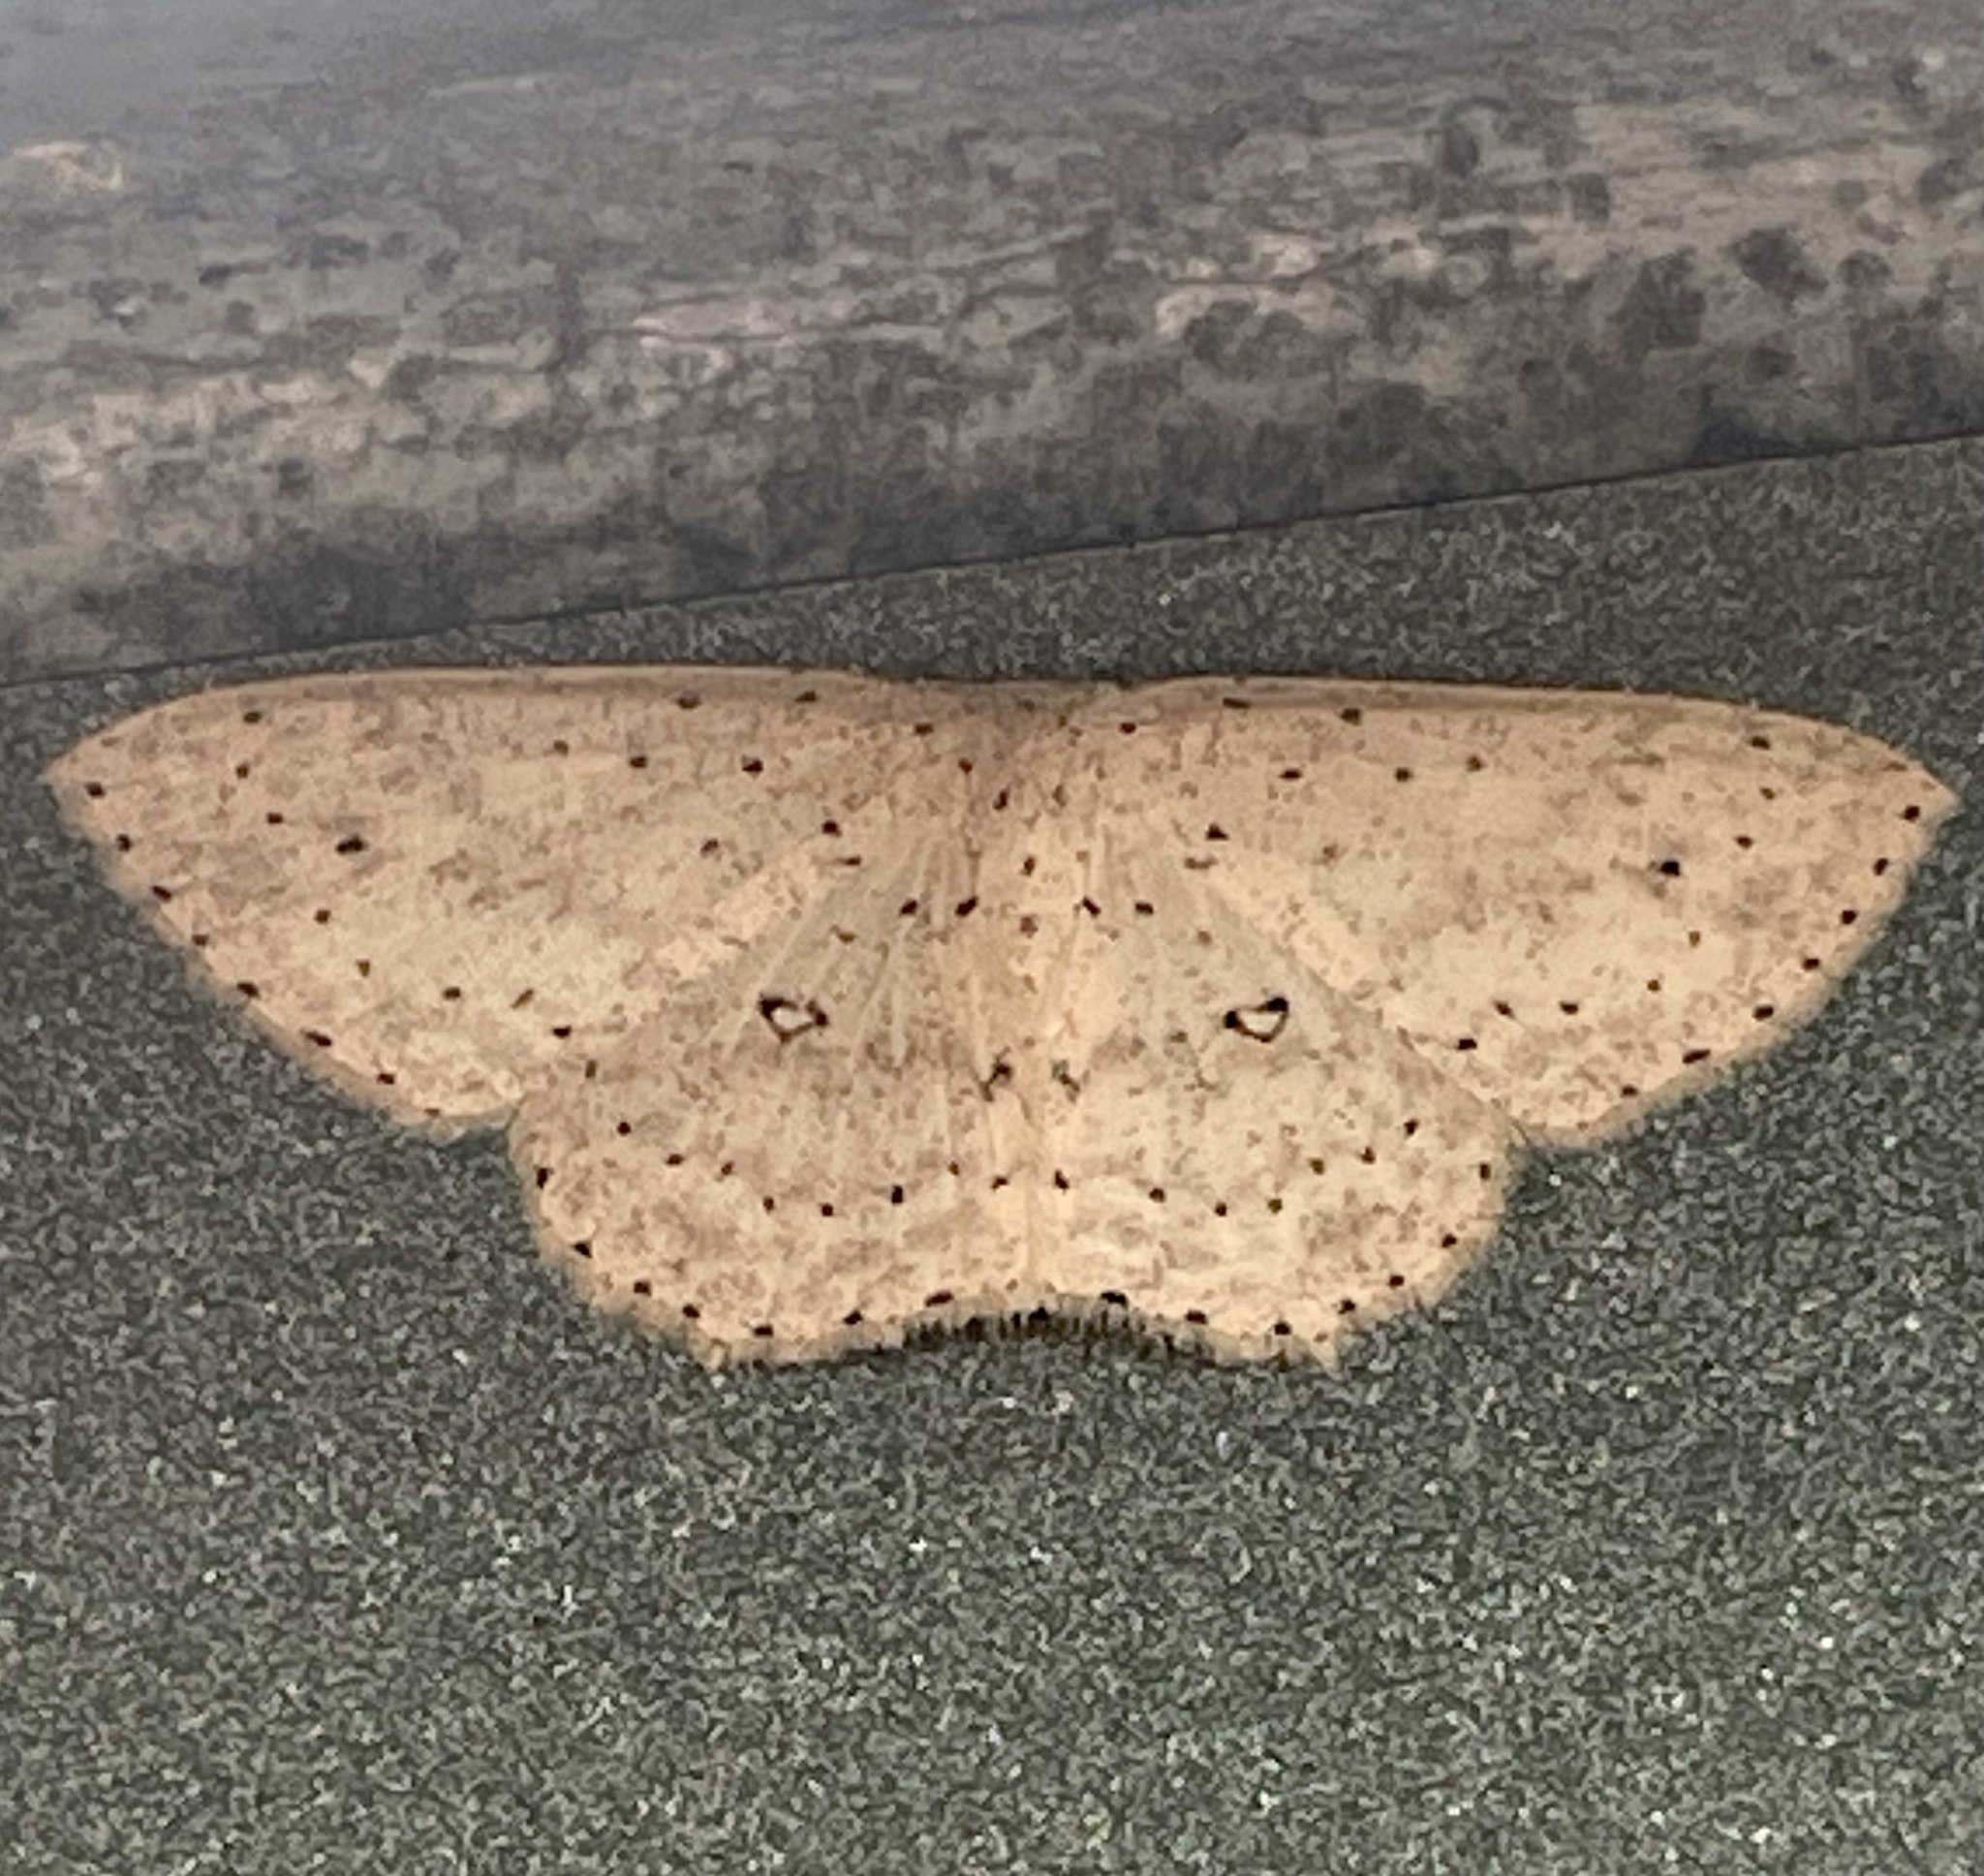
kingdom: Animalia
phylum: Arthropoda
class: Insecta
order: Lepidoptera
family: Geometridae
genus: Cyclophora
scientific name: Cyclophora turneri
